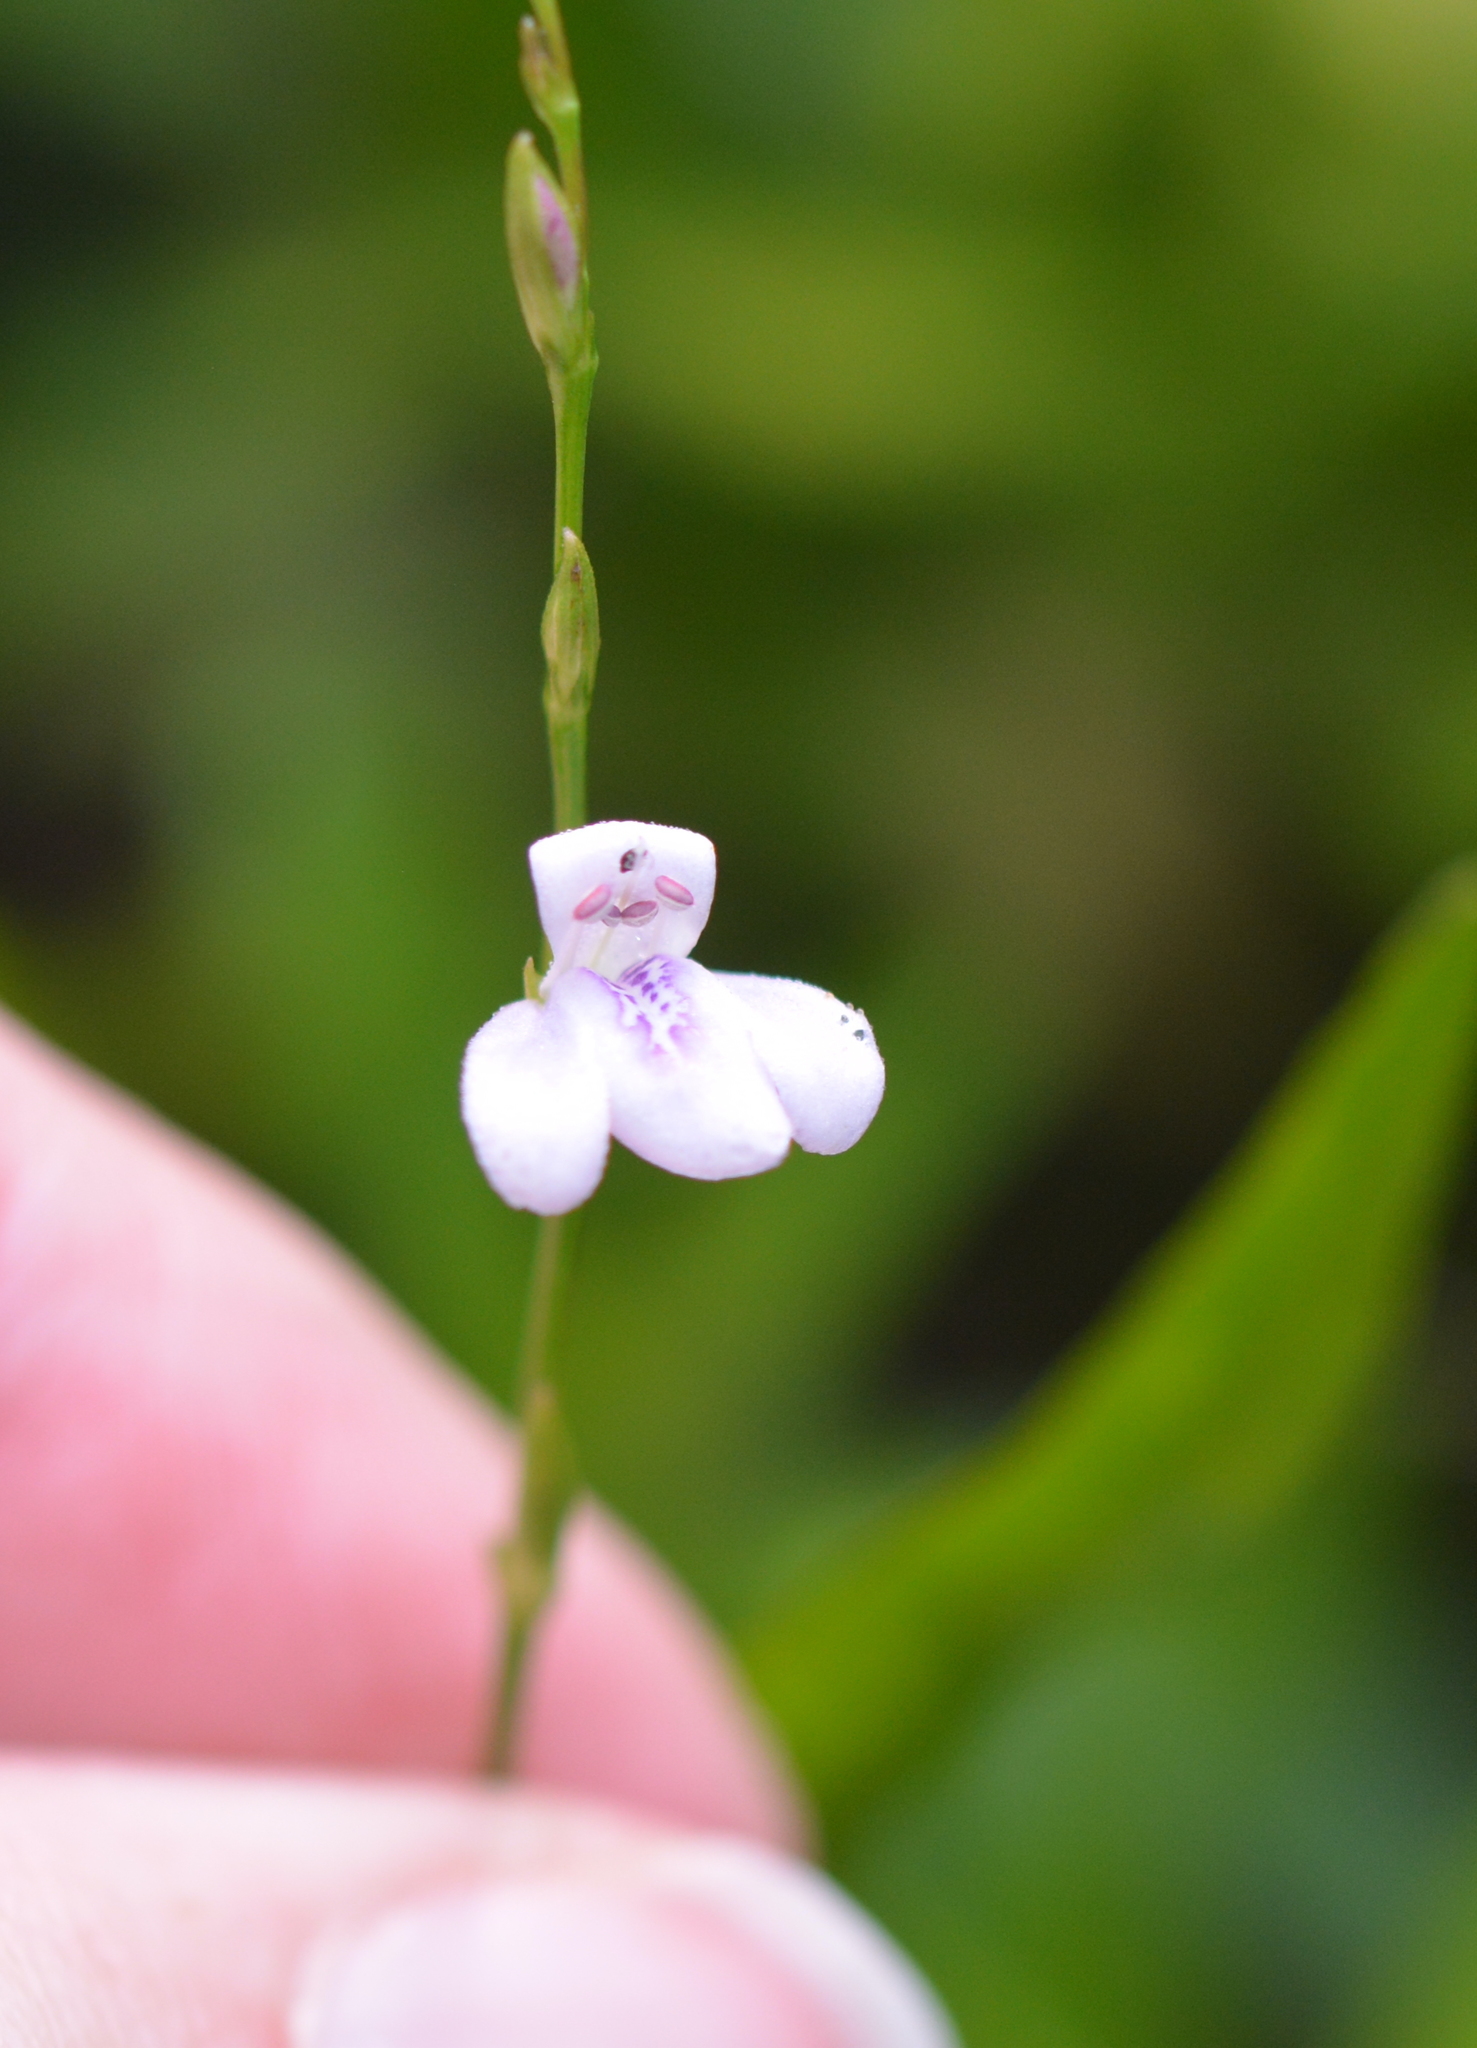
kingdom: Plantae
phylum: Tracheophyta
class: Magnoliopsida
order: Lamiales
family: Acanthaceae
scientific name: Acanthaceae
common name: Acanthaceae
